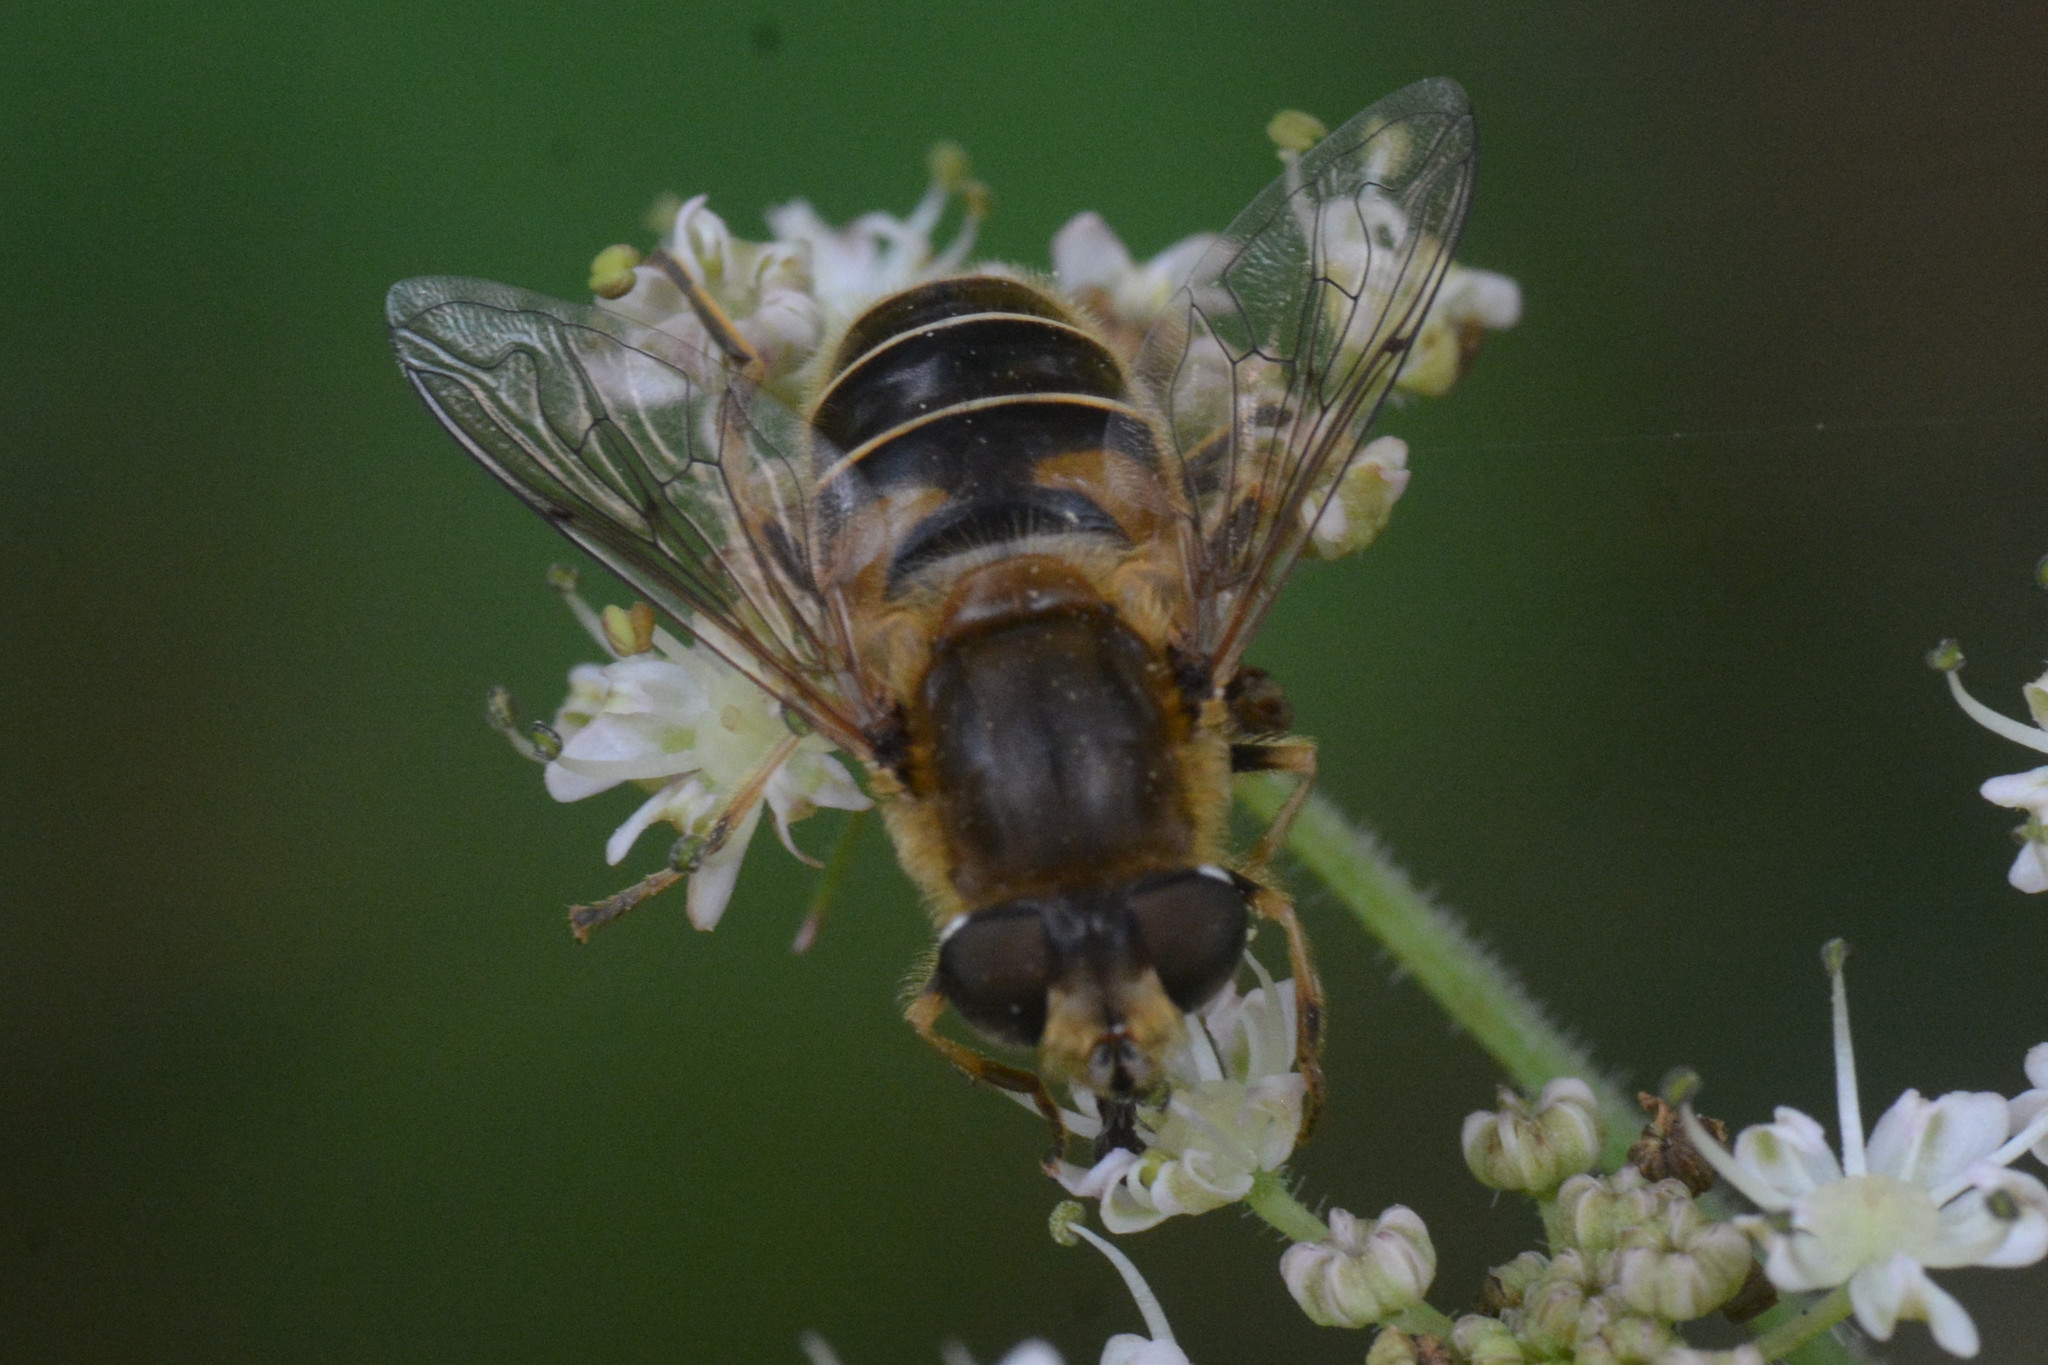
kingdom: Animalia
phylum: Arthropoda
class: Insecta
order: Diptera
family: Syrphidae
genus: Eristalis
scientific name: Eristalis nemorum
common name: Orange-spined drone fly
